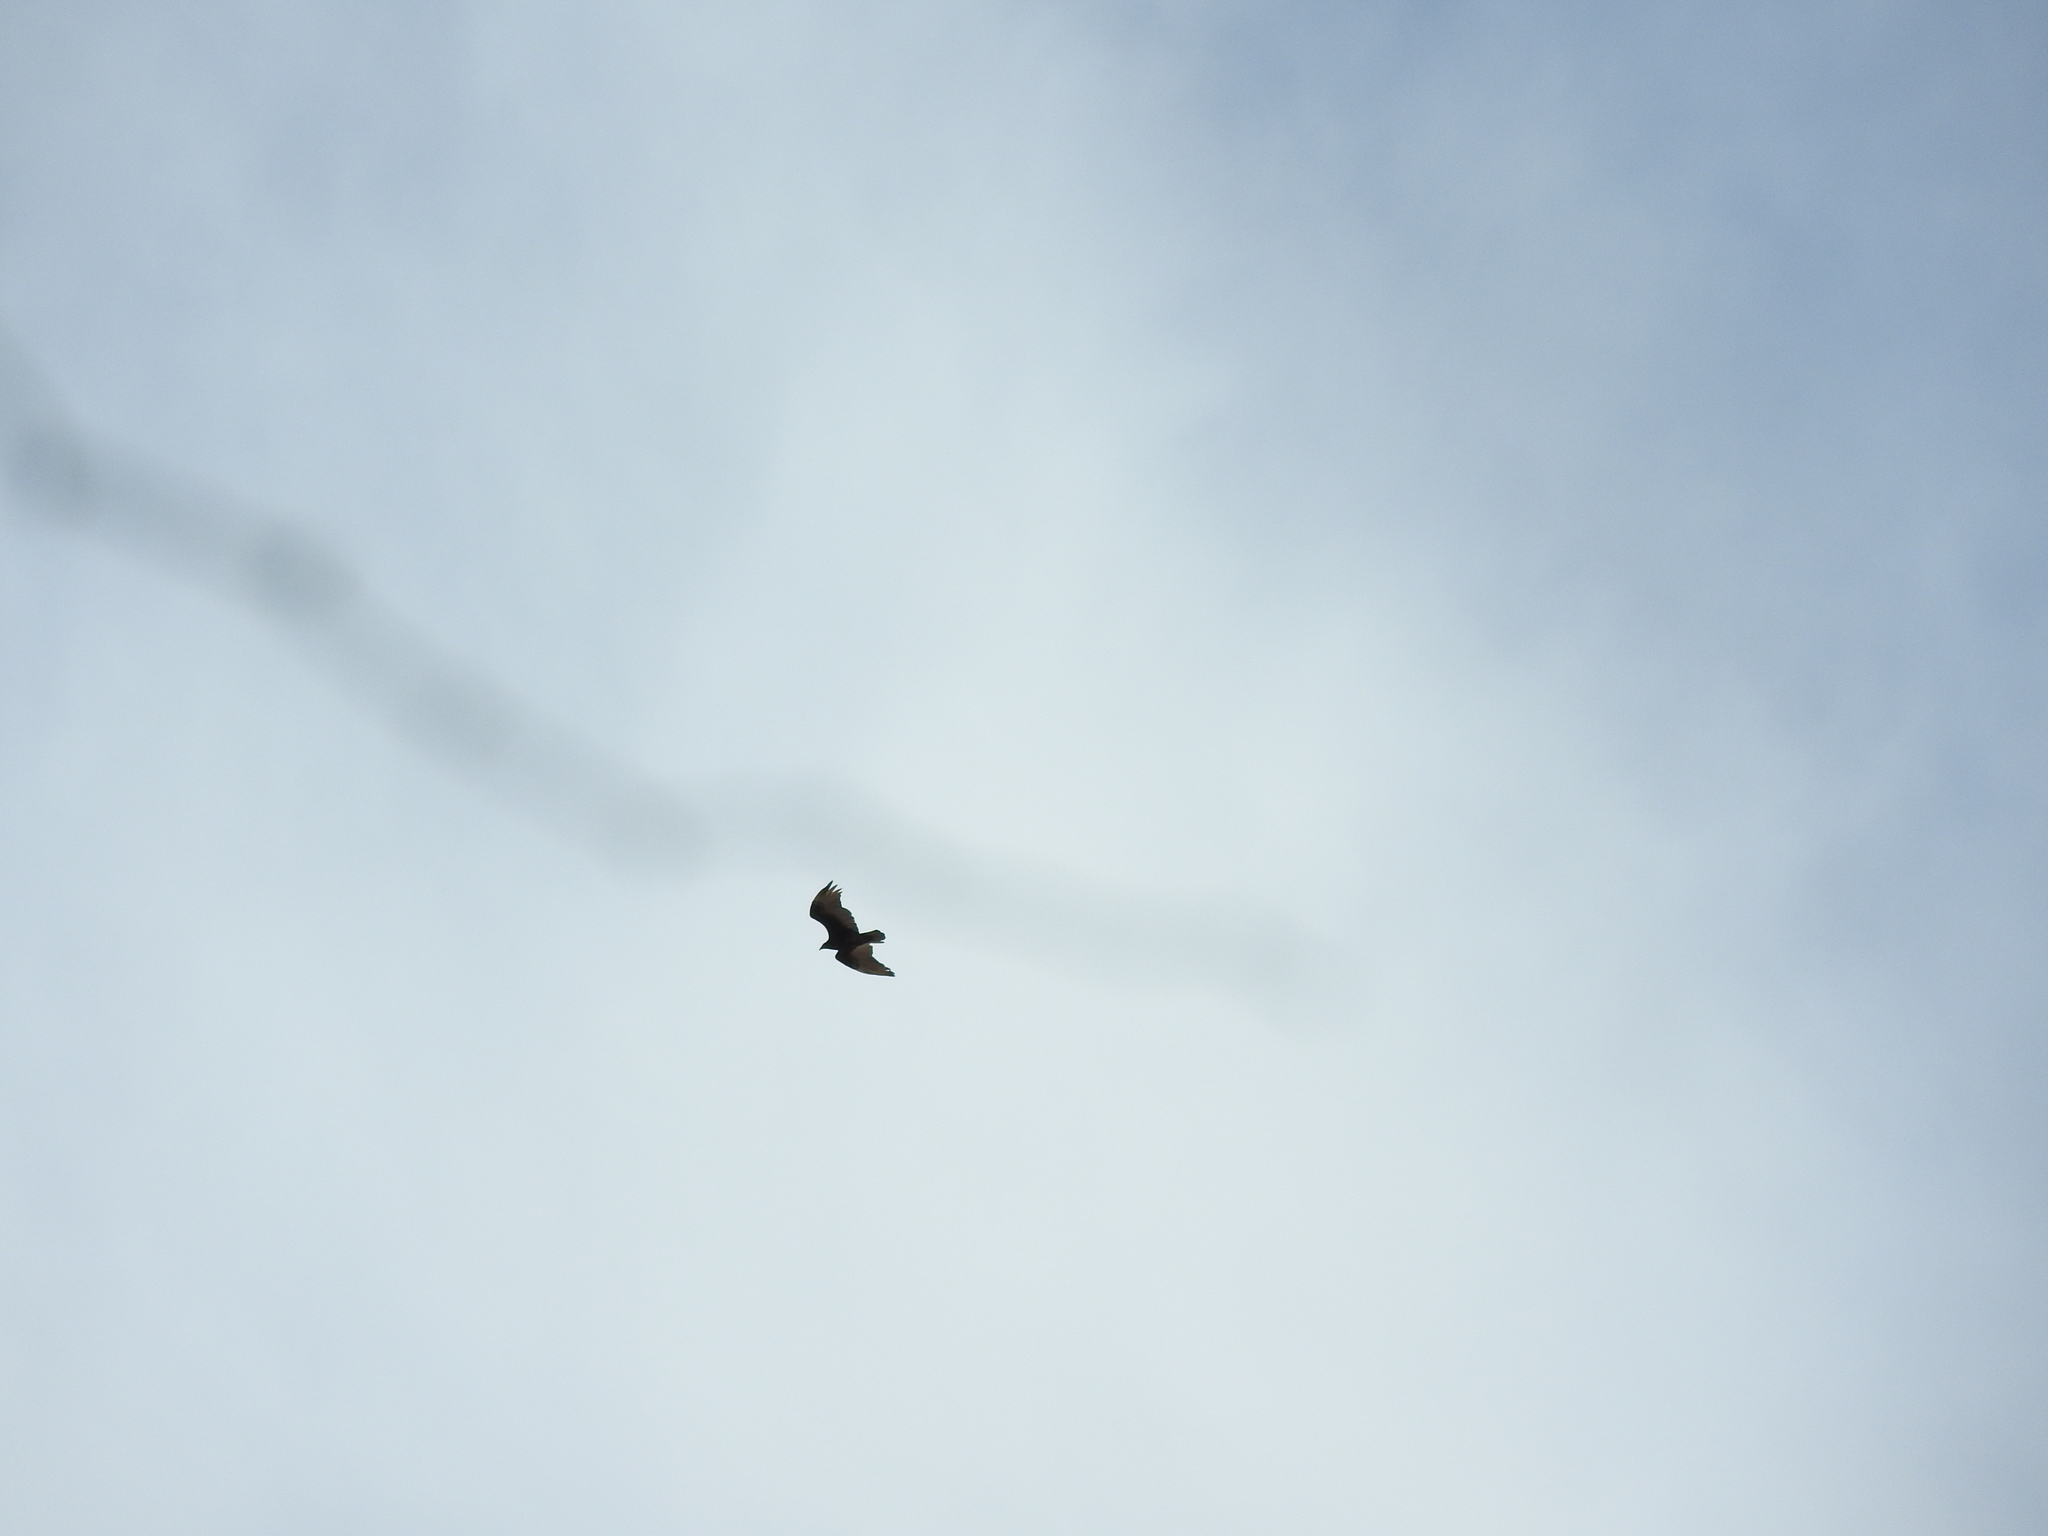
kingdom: Animalia
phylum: Chordata
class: Aves
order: Accipitriformes
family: Cathartidae
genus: Cathartes
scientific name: Cathartes aura
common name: Turkey vulture
